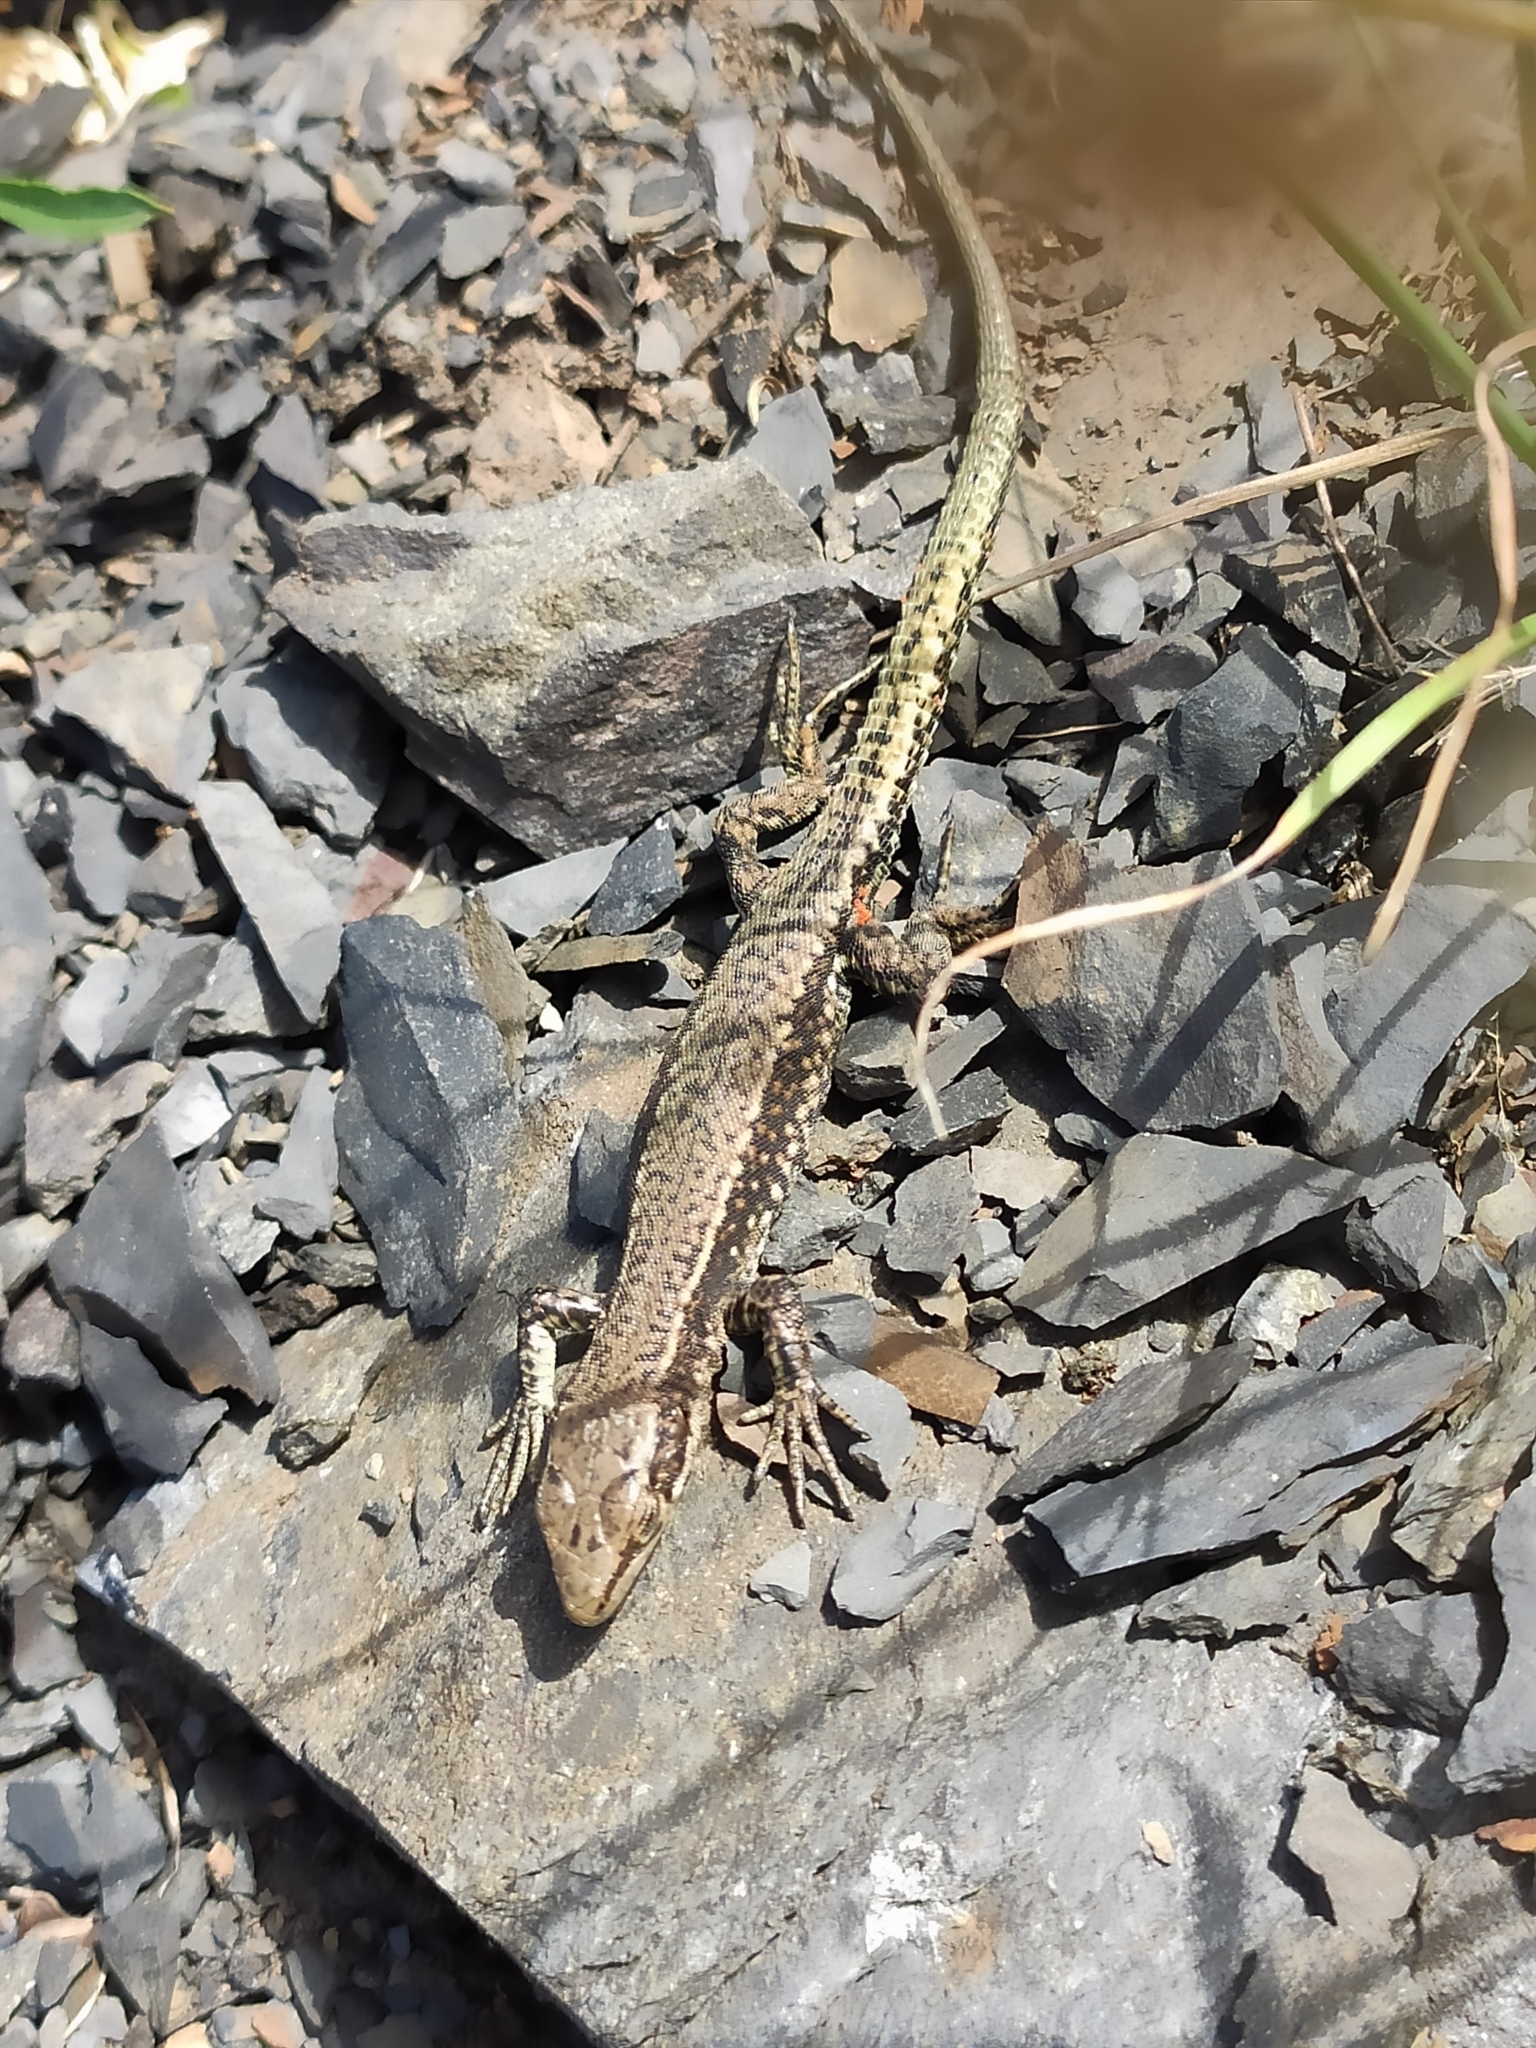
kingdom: Animalia
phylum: Chordata
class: Squamata
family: Lacertidae
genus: Darevskia
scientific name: Darevskia brauneri
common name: Brauner's rock lizard
